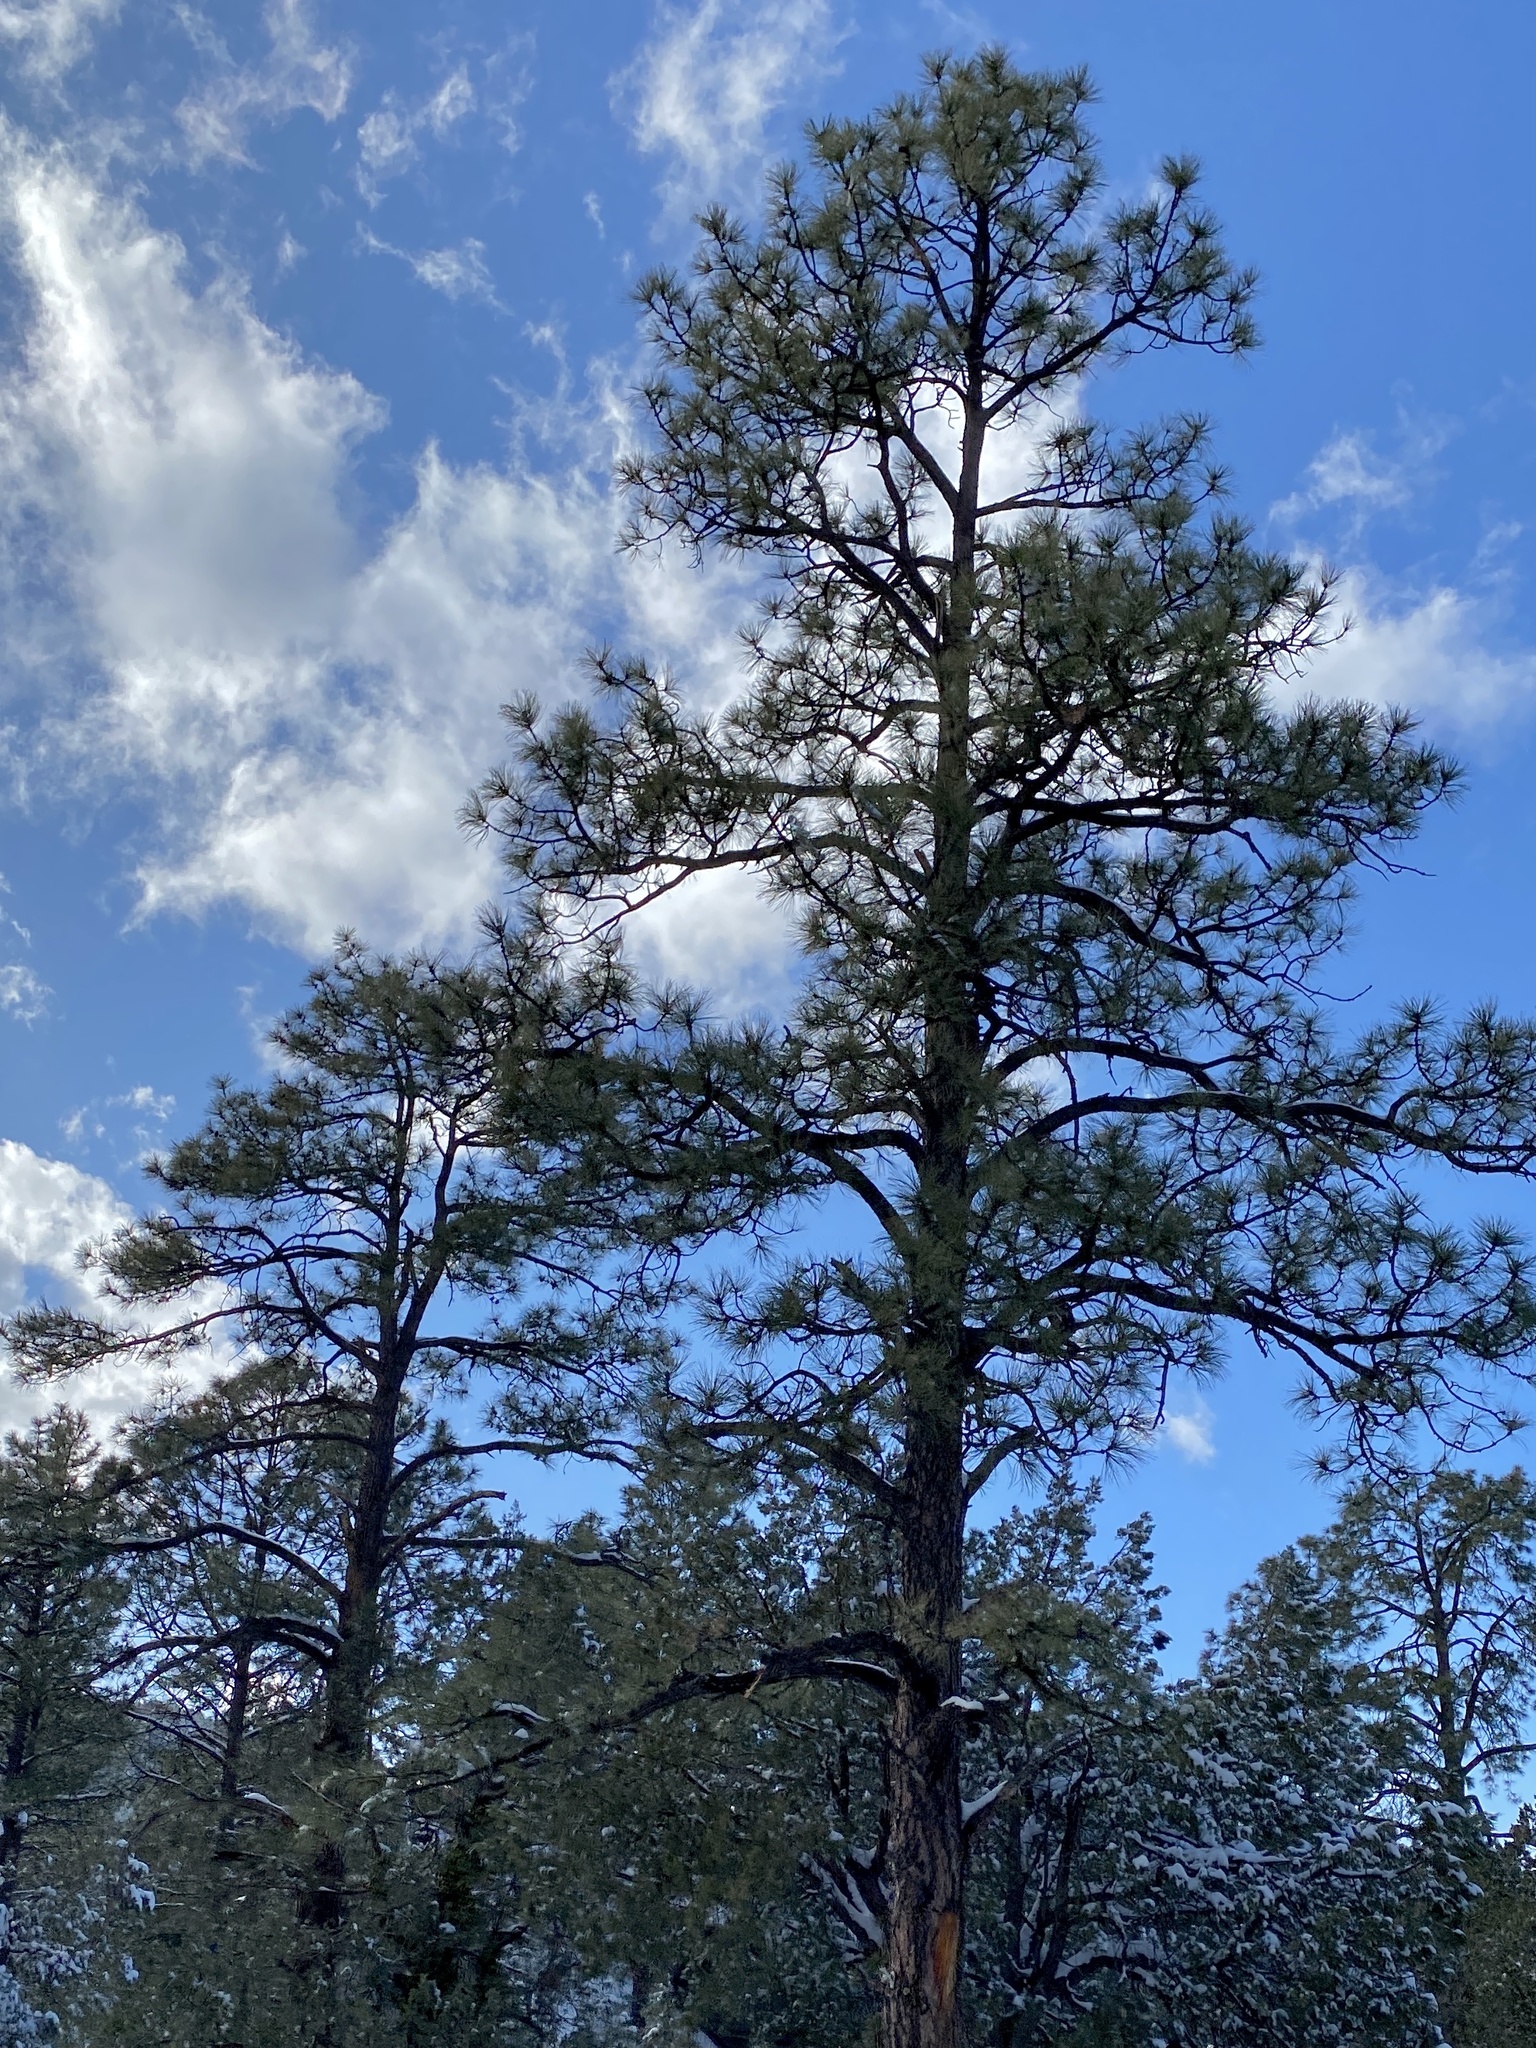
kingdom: Plantae
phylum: Tracheophyta
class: Pinopsida
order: Pinales
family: Pinaceae
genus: Pinus
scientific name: Pinus ponderosa
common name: Western yellow-pine
